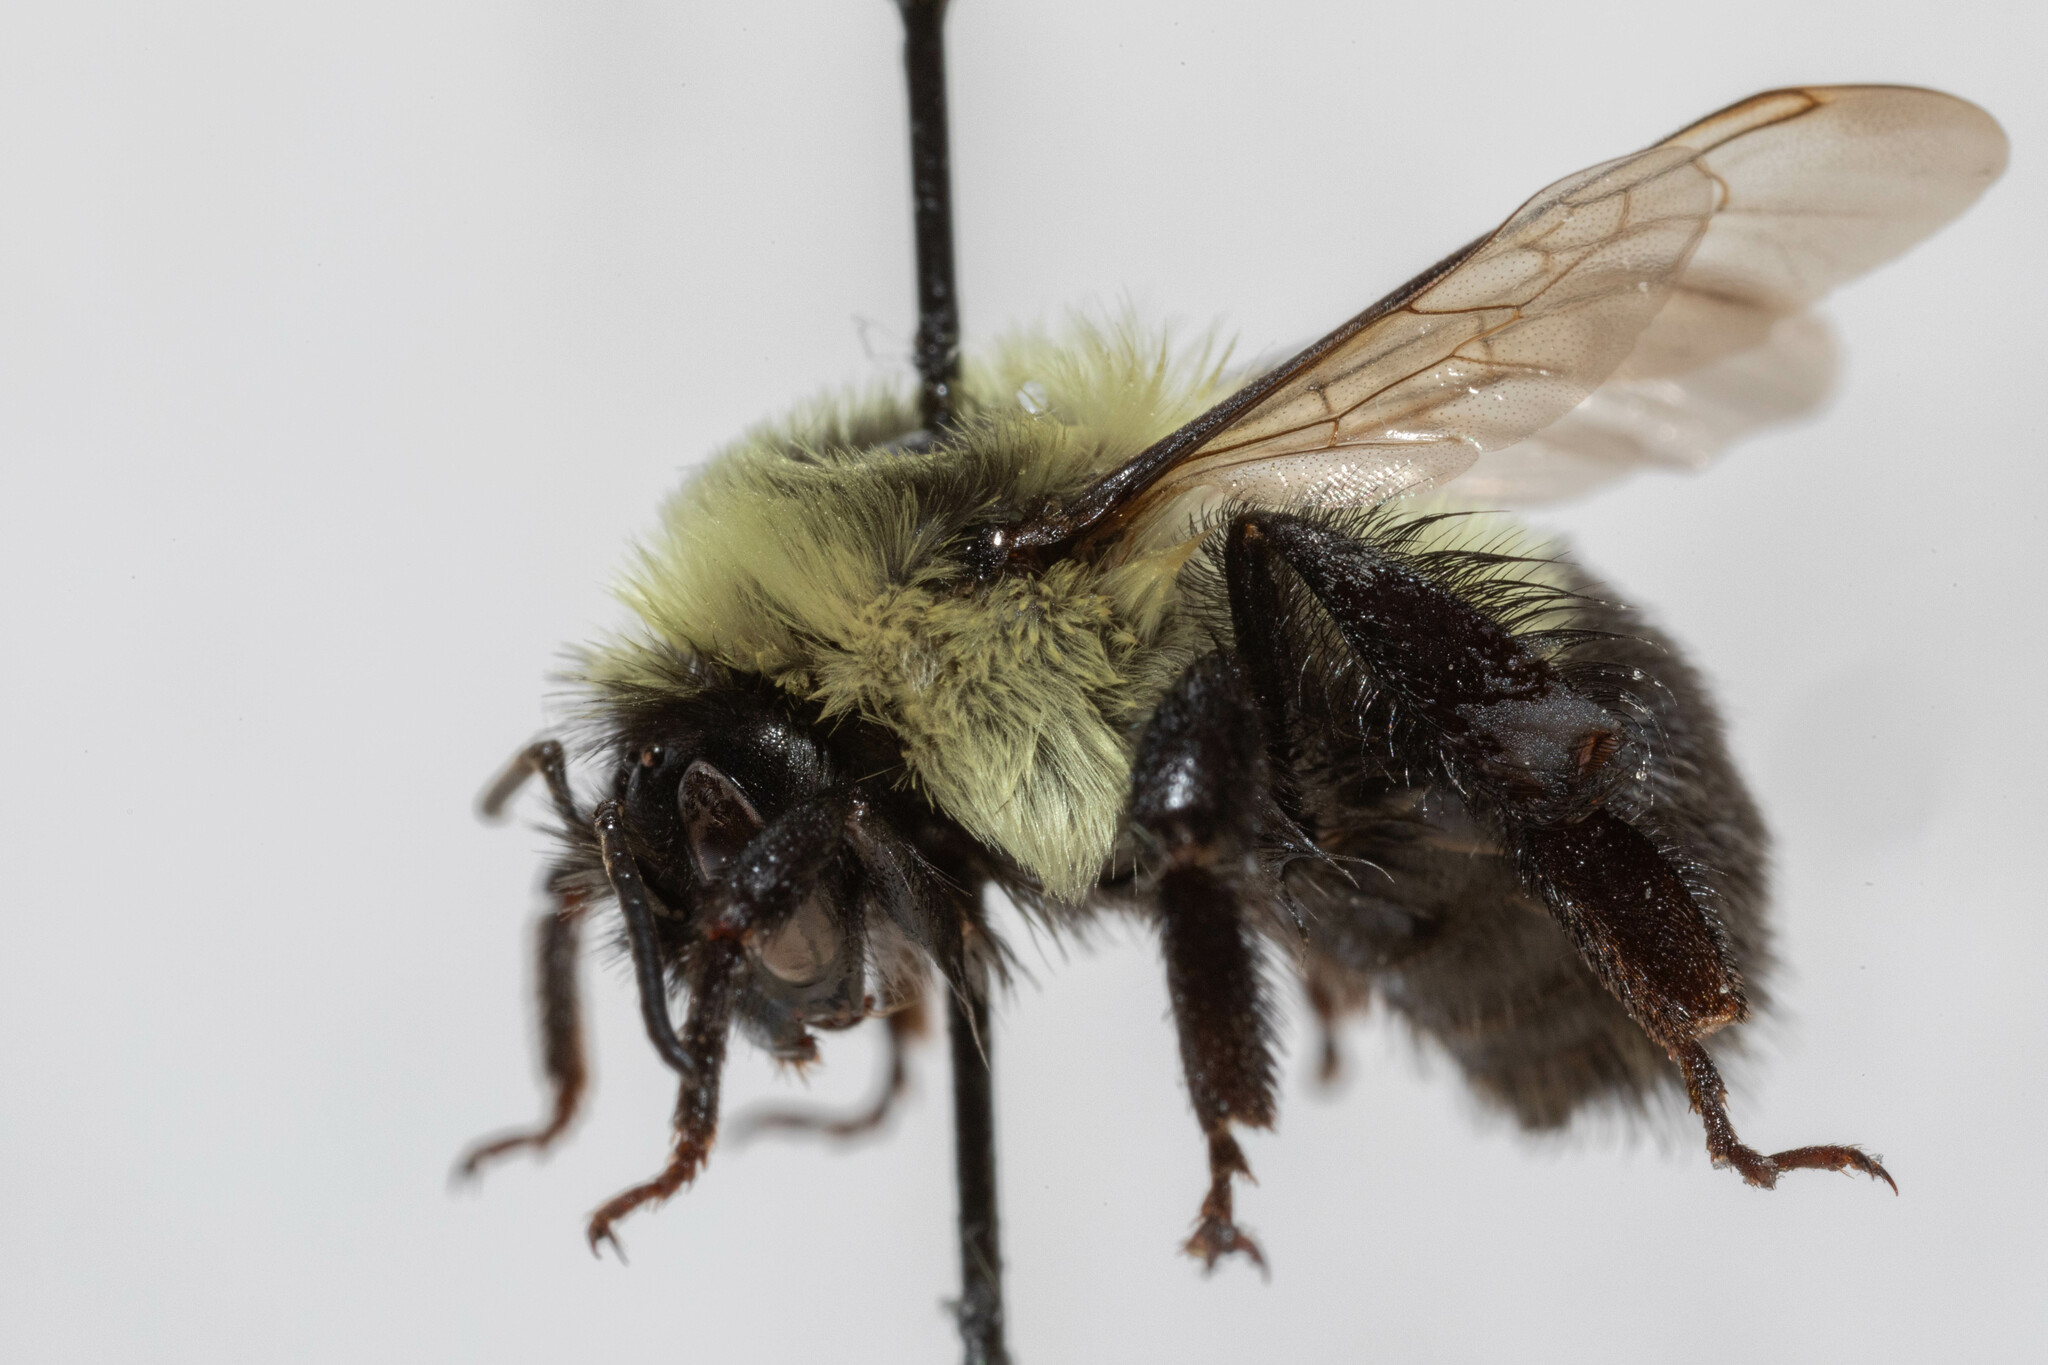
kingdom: Animalia
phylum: Arthropoda
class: Insecta
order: Hymenoptera
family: Apidae
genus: Bombus
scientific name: Bombus impatiens
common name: Common eastern bumble bee
